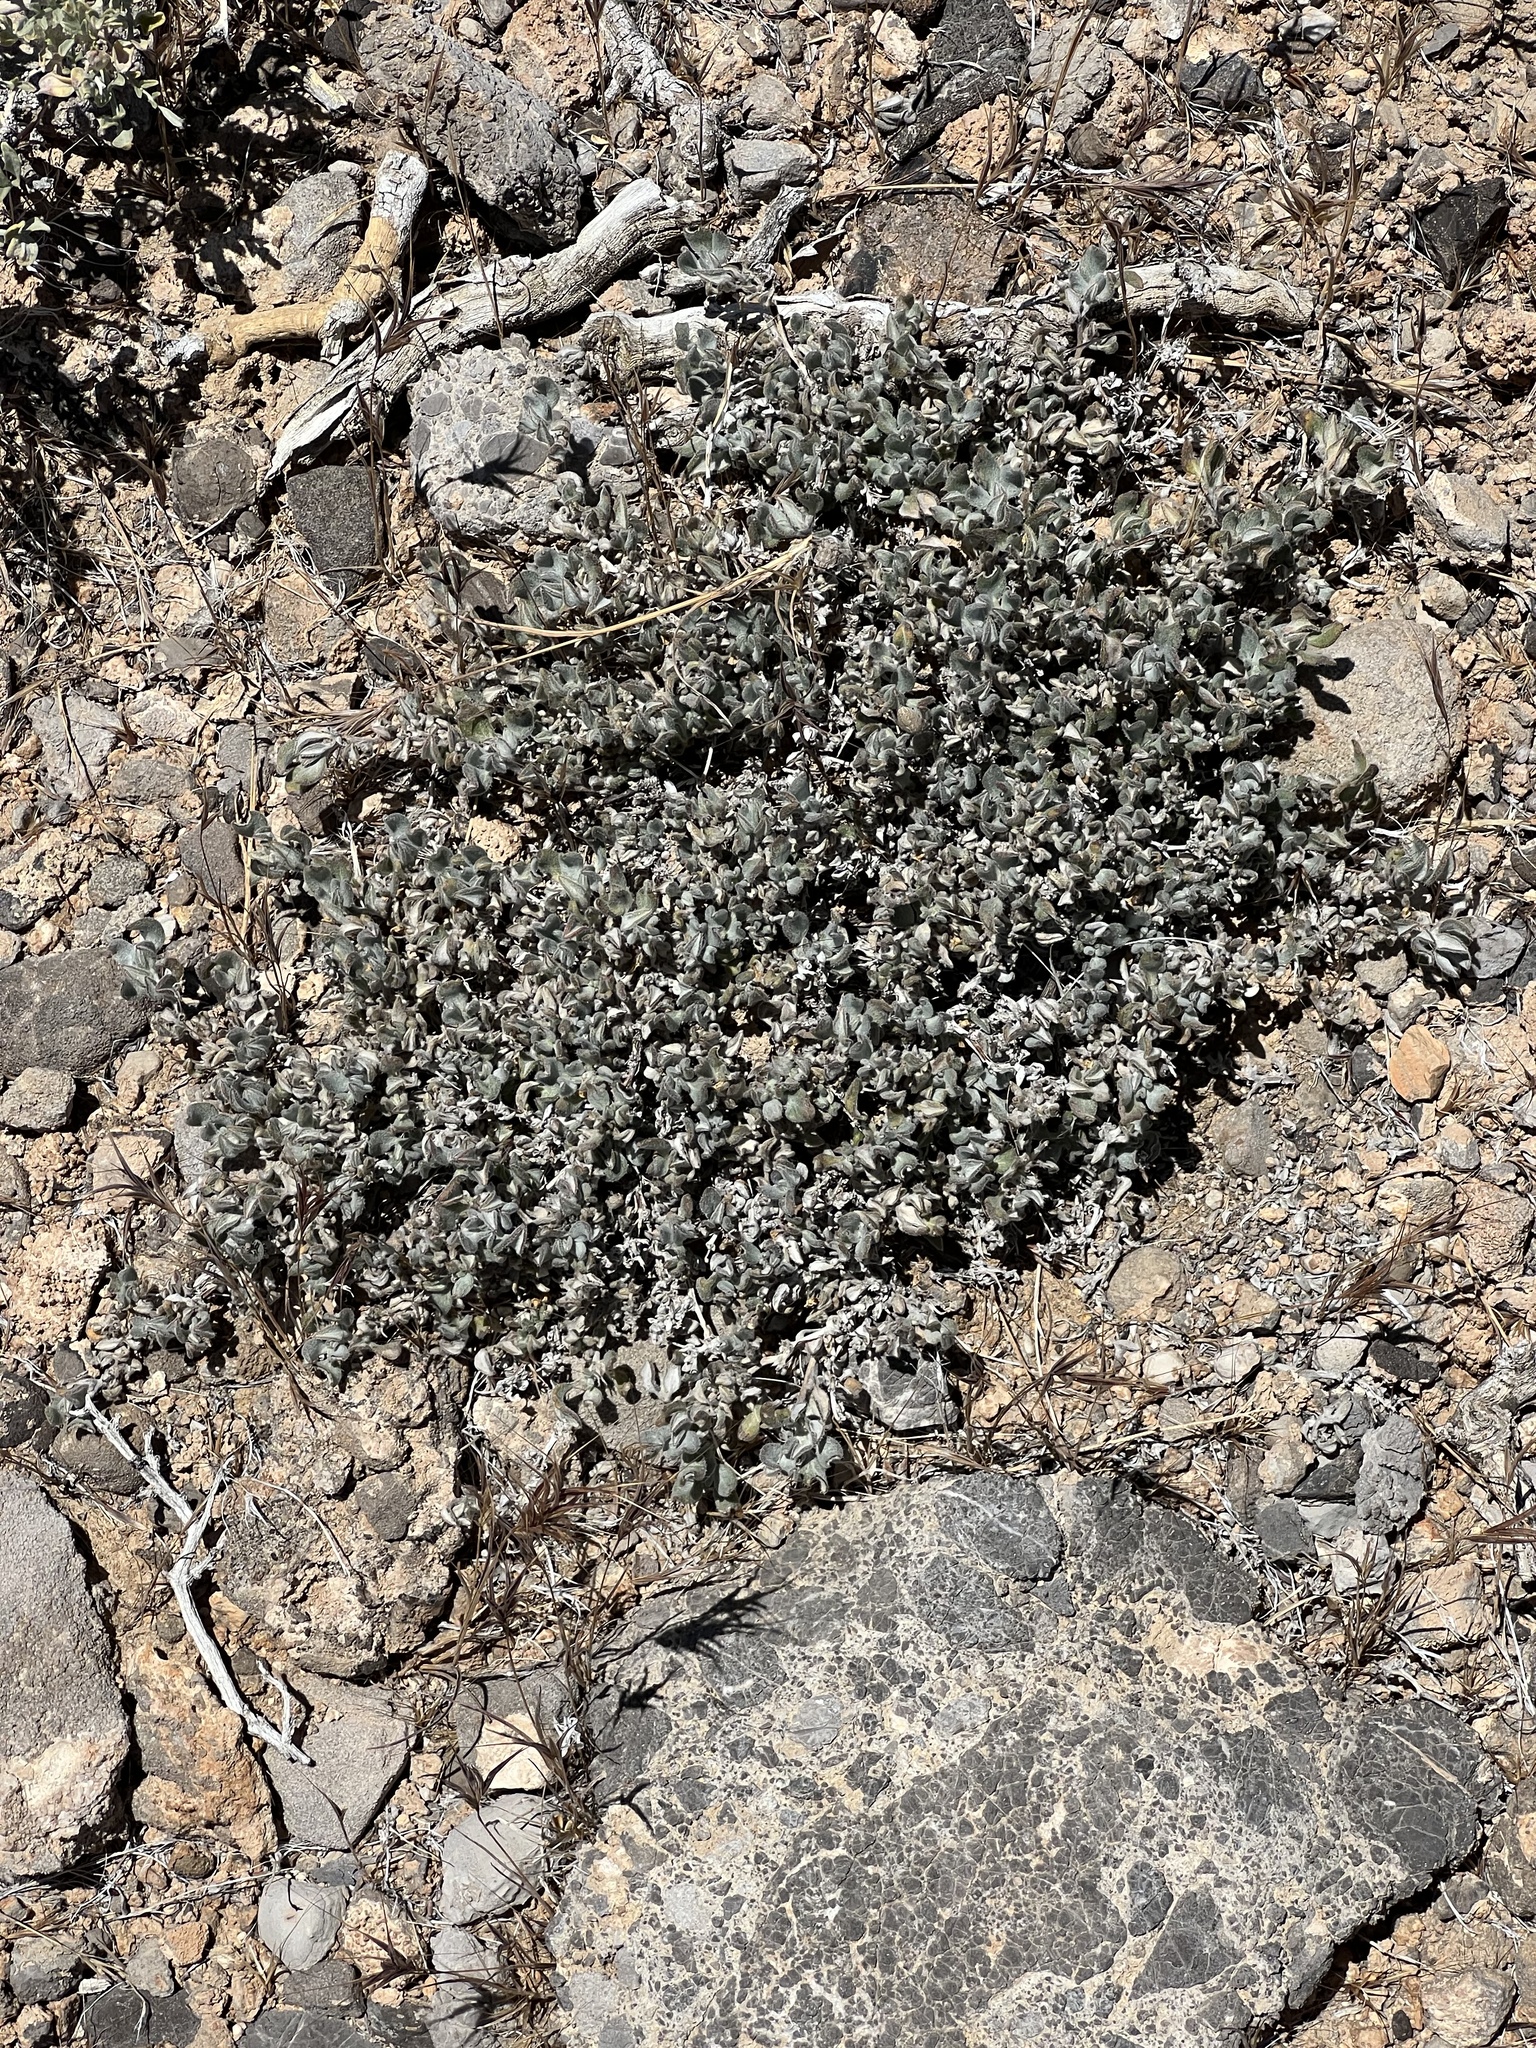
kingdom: Plantae
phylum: Tracheophyta
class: Magnoliopsida
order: Boraginales
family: Ehretiaceae
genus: Tiquilia
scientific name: Tiquilia canescens
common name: Hairy tiquilia
